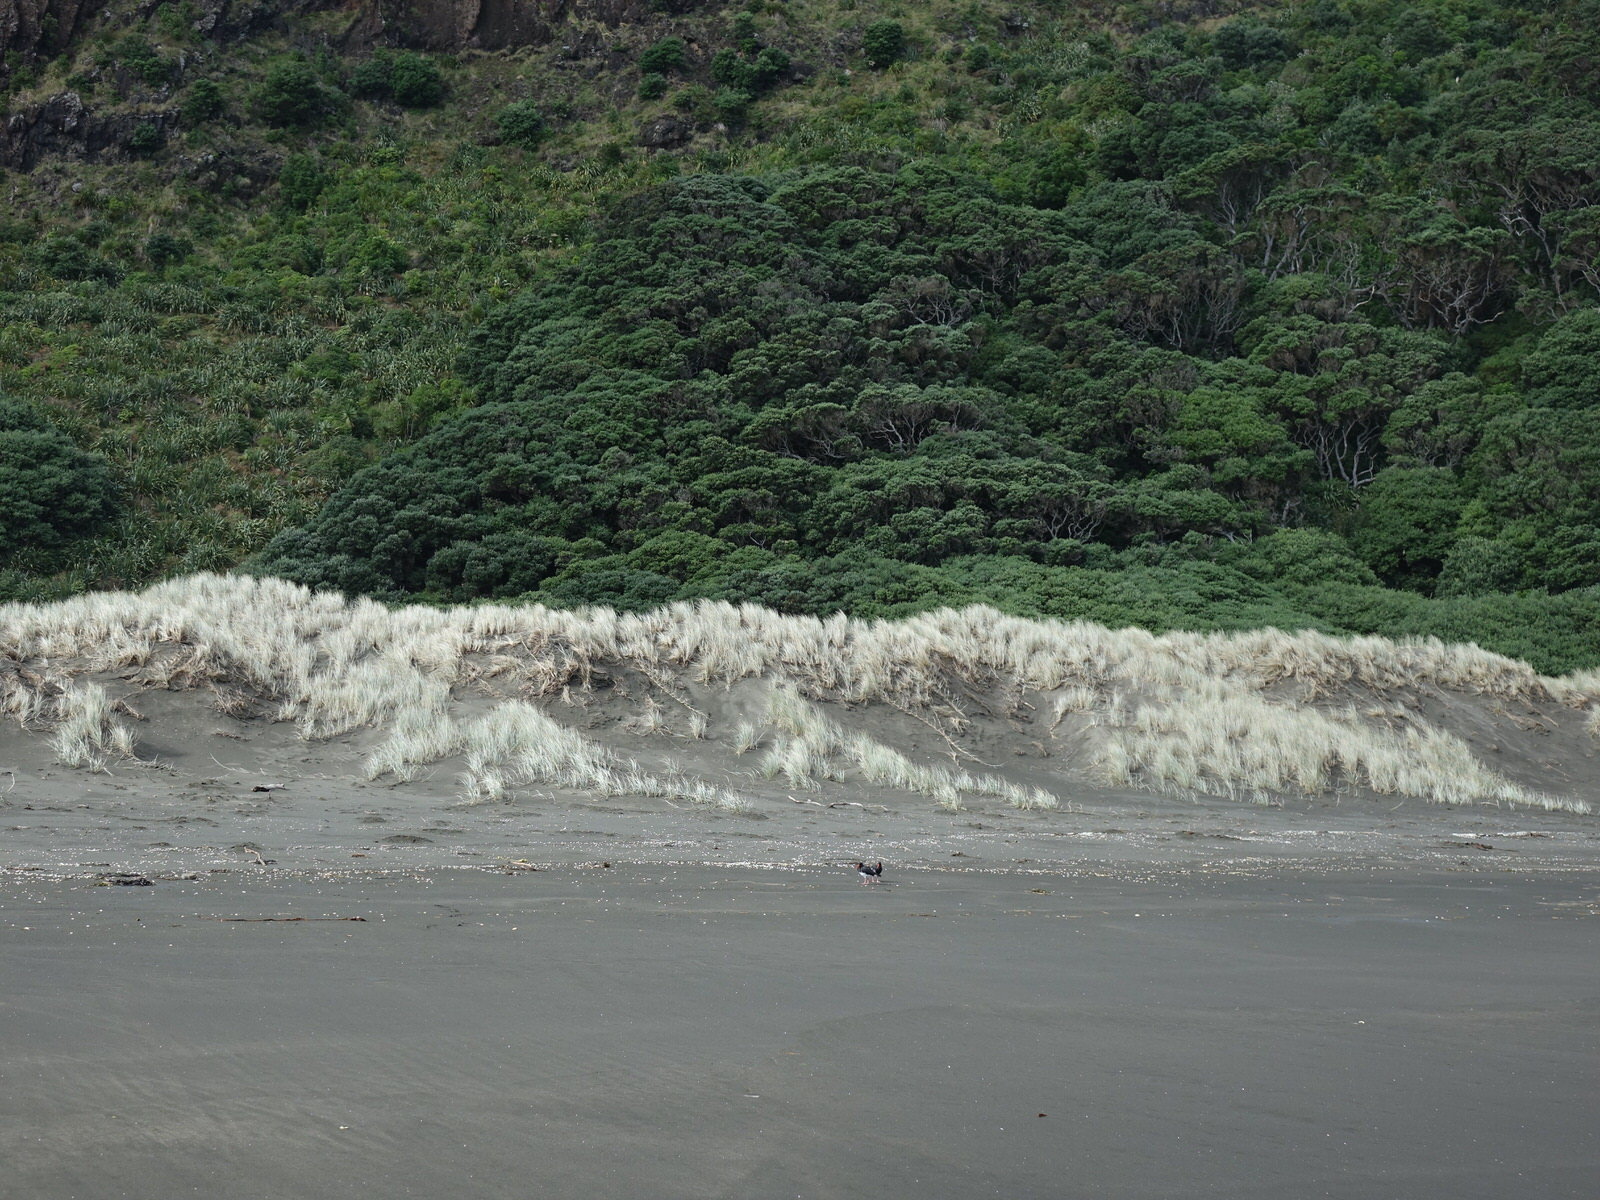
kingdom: Animalia
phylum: Chordata
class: Aves
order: Charadriiformes
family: Haematopodidae
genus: Haematopus
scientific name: Haematopus unicolor
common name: Variable oystercatcher
